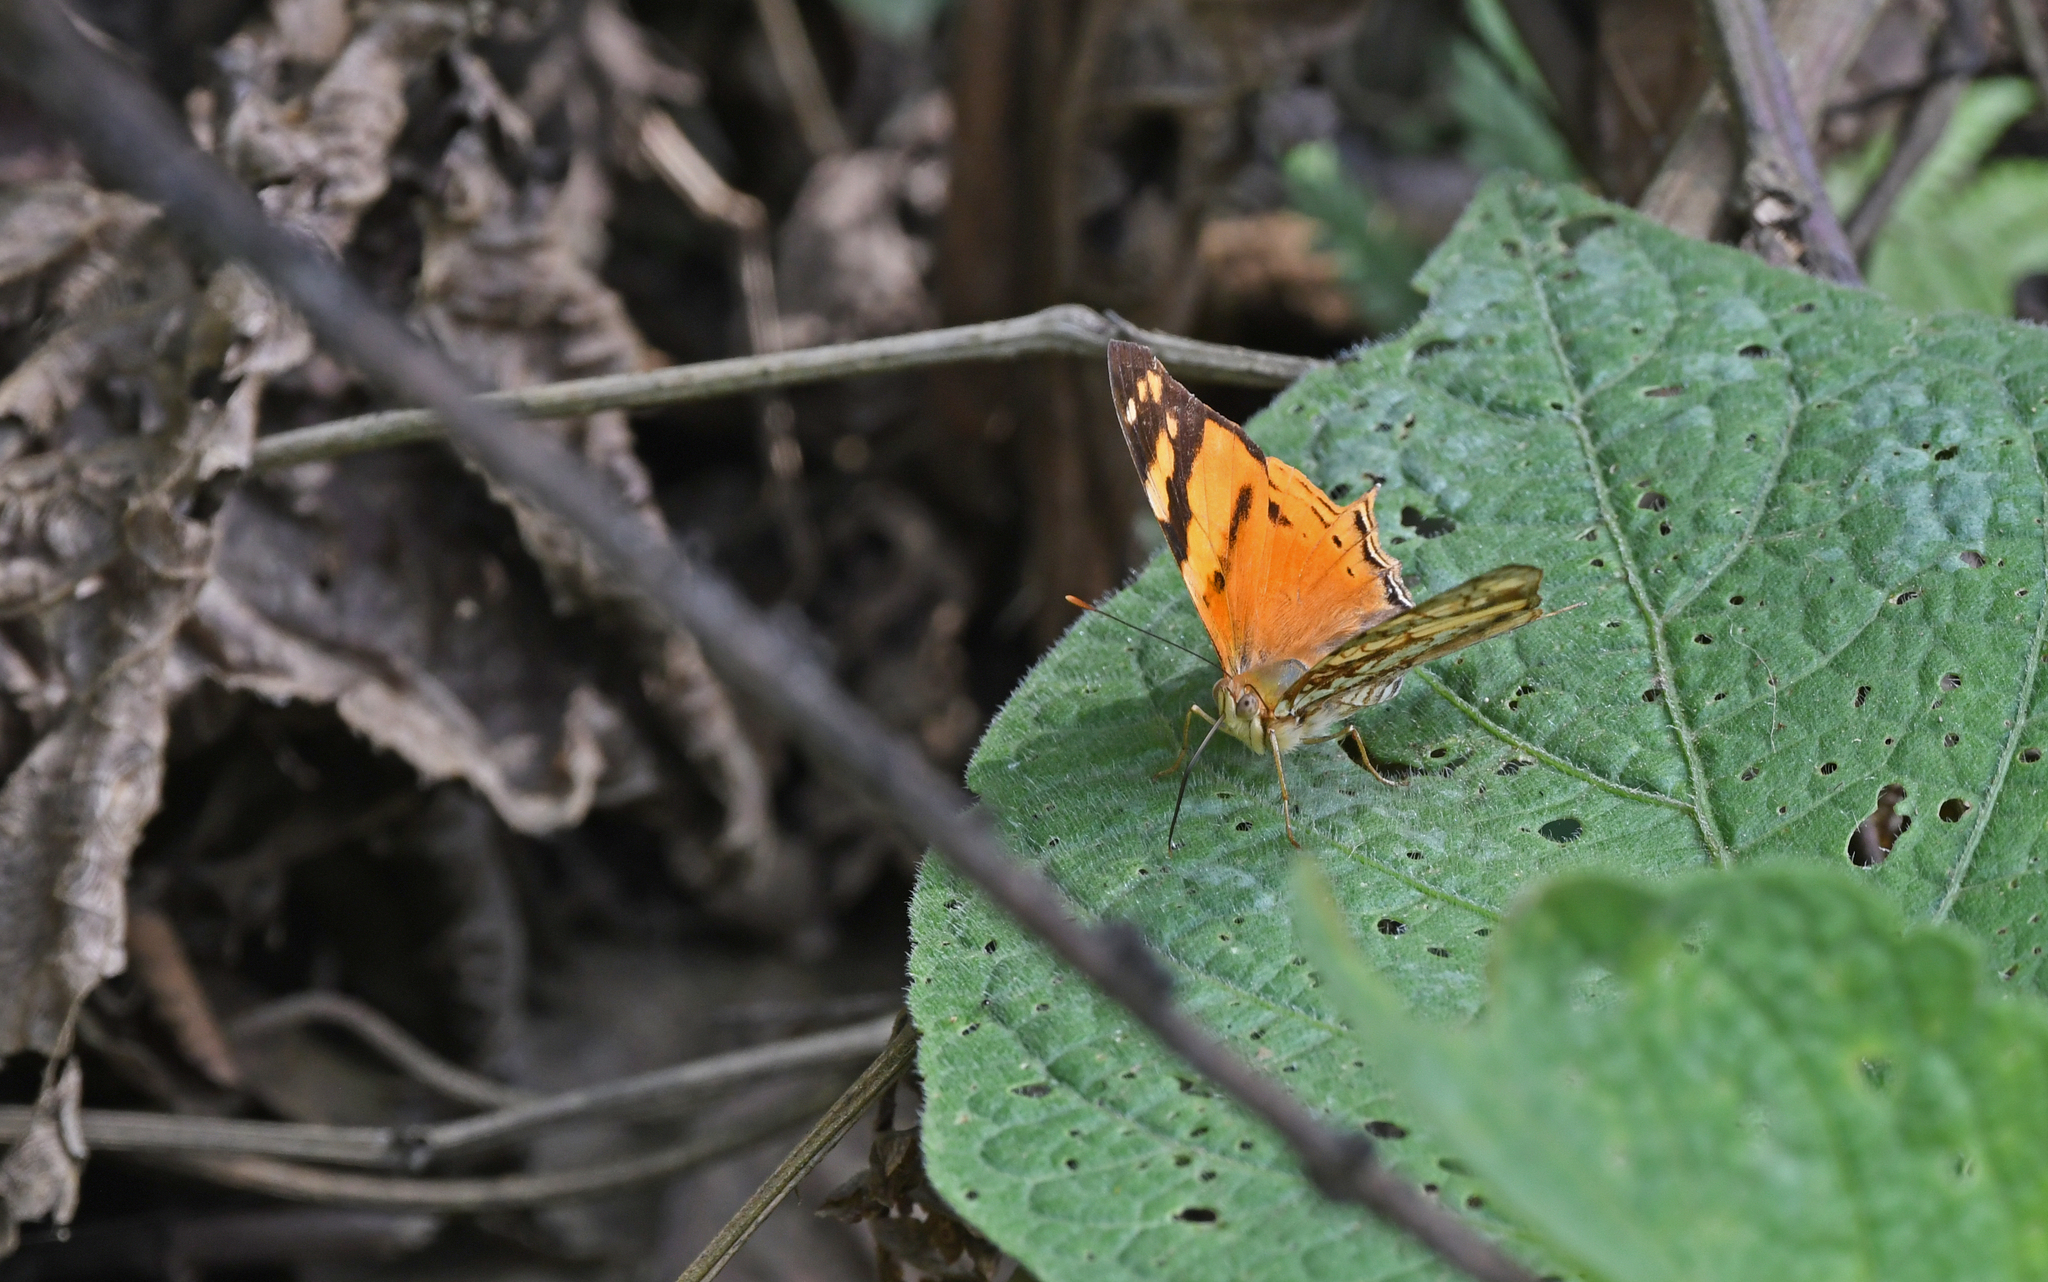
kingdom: Animalia
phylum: Arthropoda
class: Insecta
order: Lepidoptera
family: Nymphalidae
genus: Hypanartia
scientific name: Hypanartia lethe
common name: Orange mapwing
